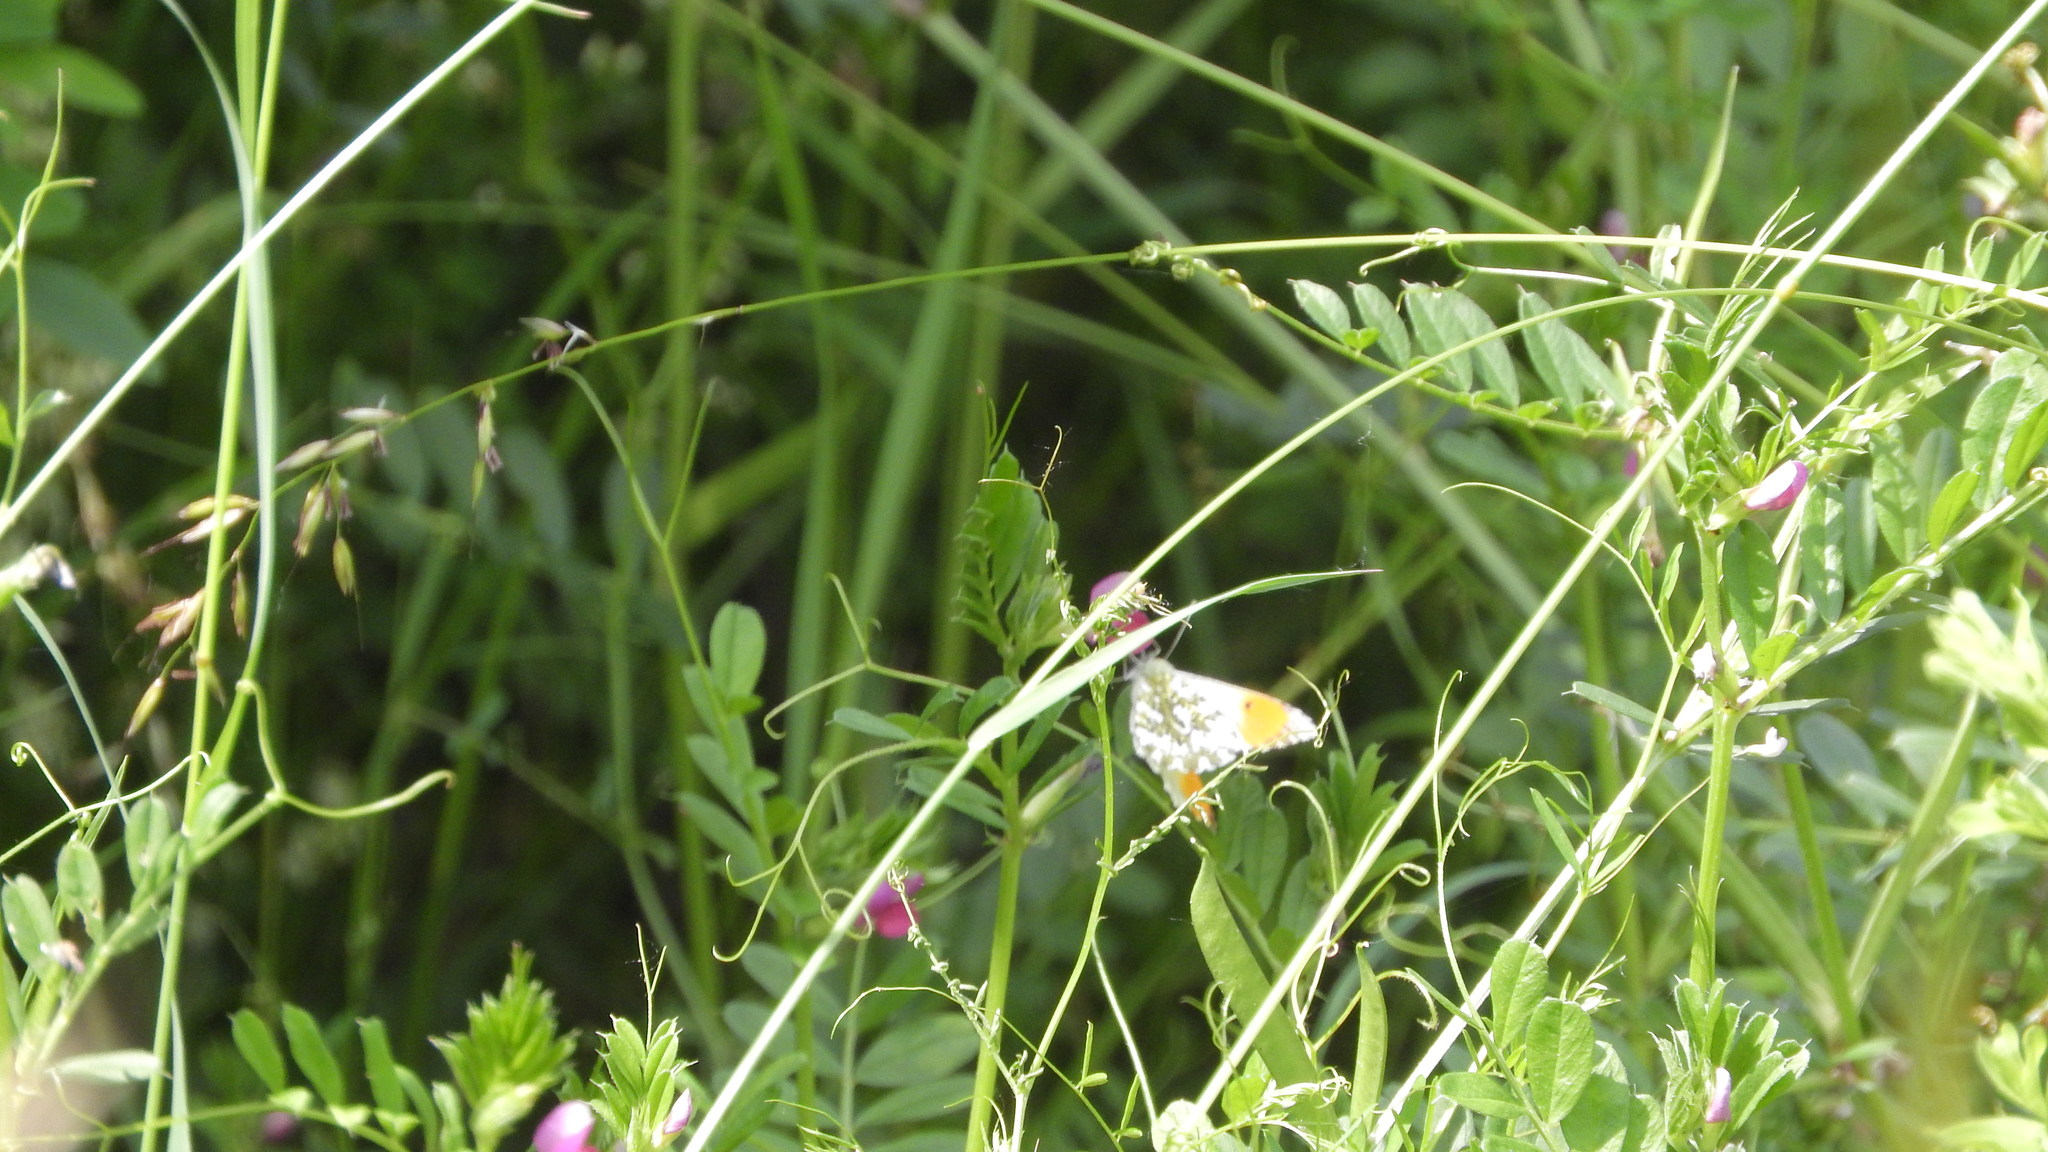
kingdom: Animalia
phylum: Arthropoda
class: Insecta
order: Lepidoptera
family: Pieridae
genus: Anthocharis
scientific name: Anthocharis cardamines
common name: Orange-tip
